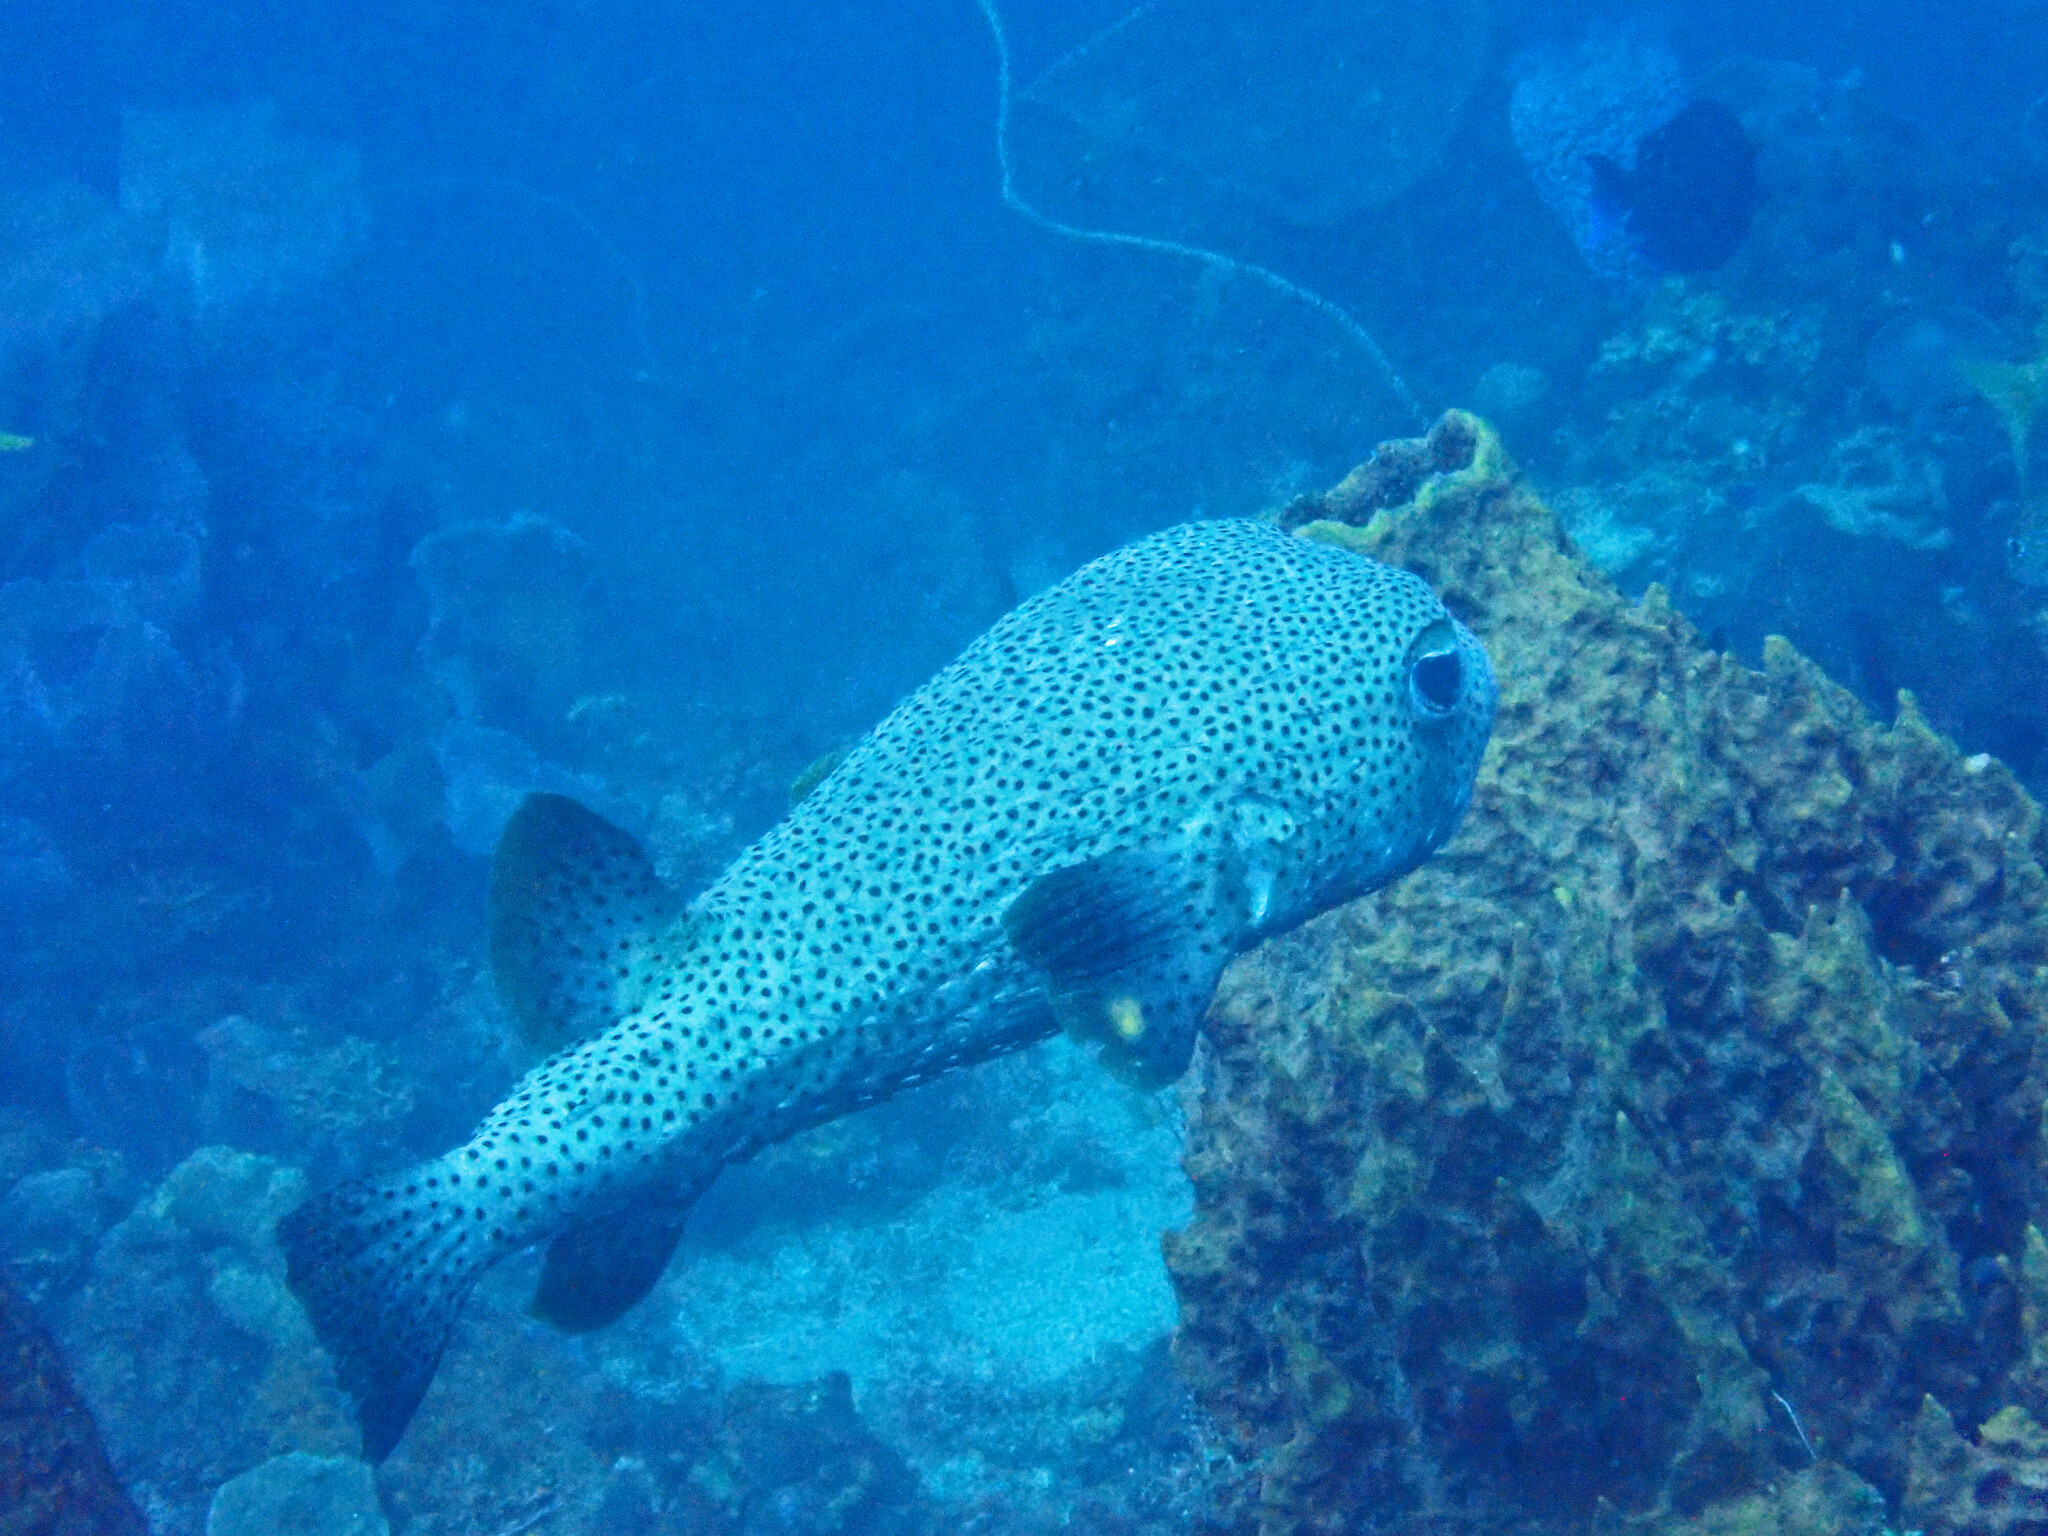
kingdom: Animalia
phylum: Chordata
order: Tetraodontiformes
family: Diodontidae
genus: Diodon
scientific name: Diodon hystrix
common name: Giant porcupinefish
